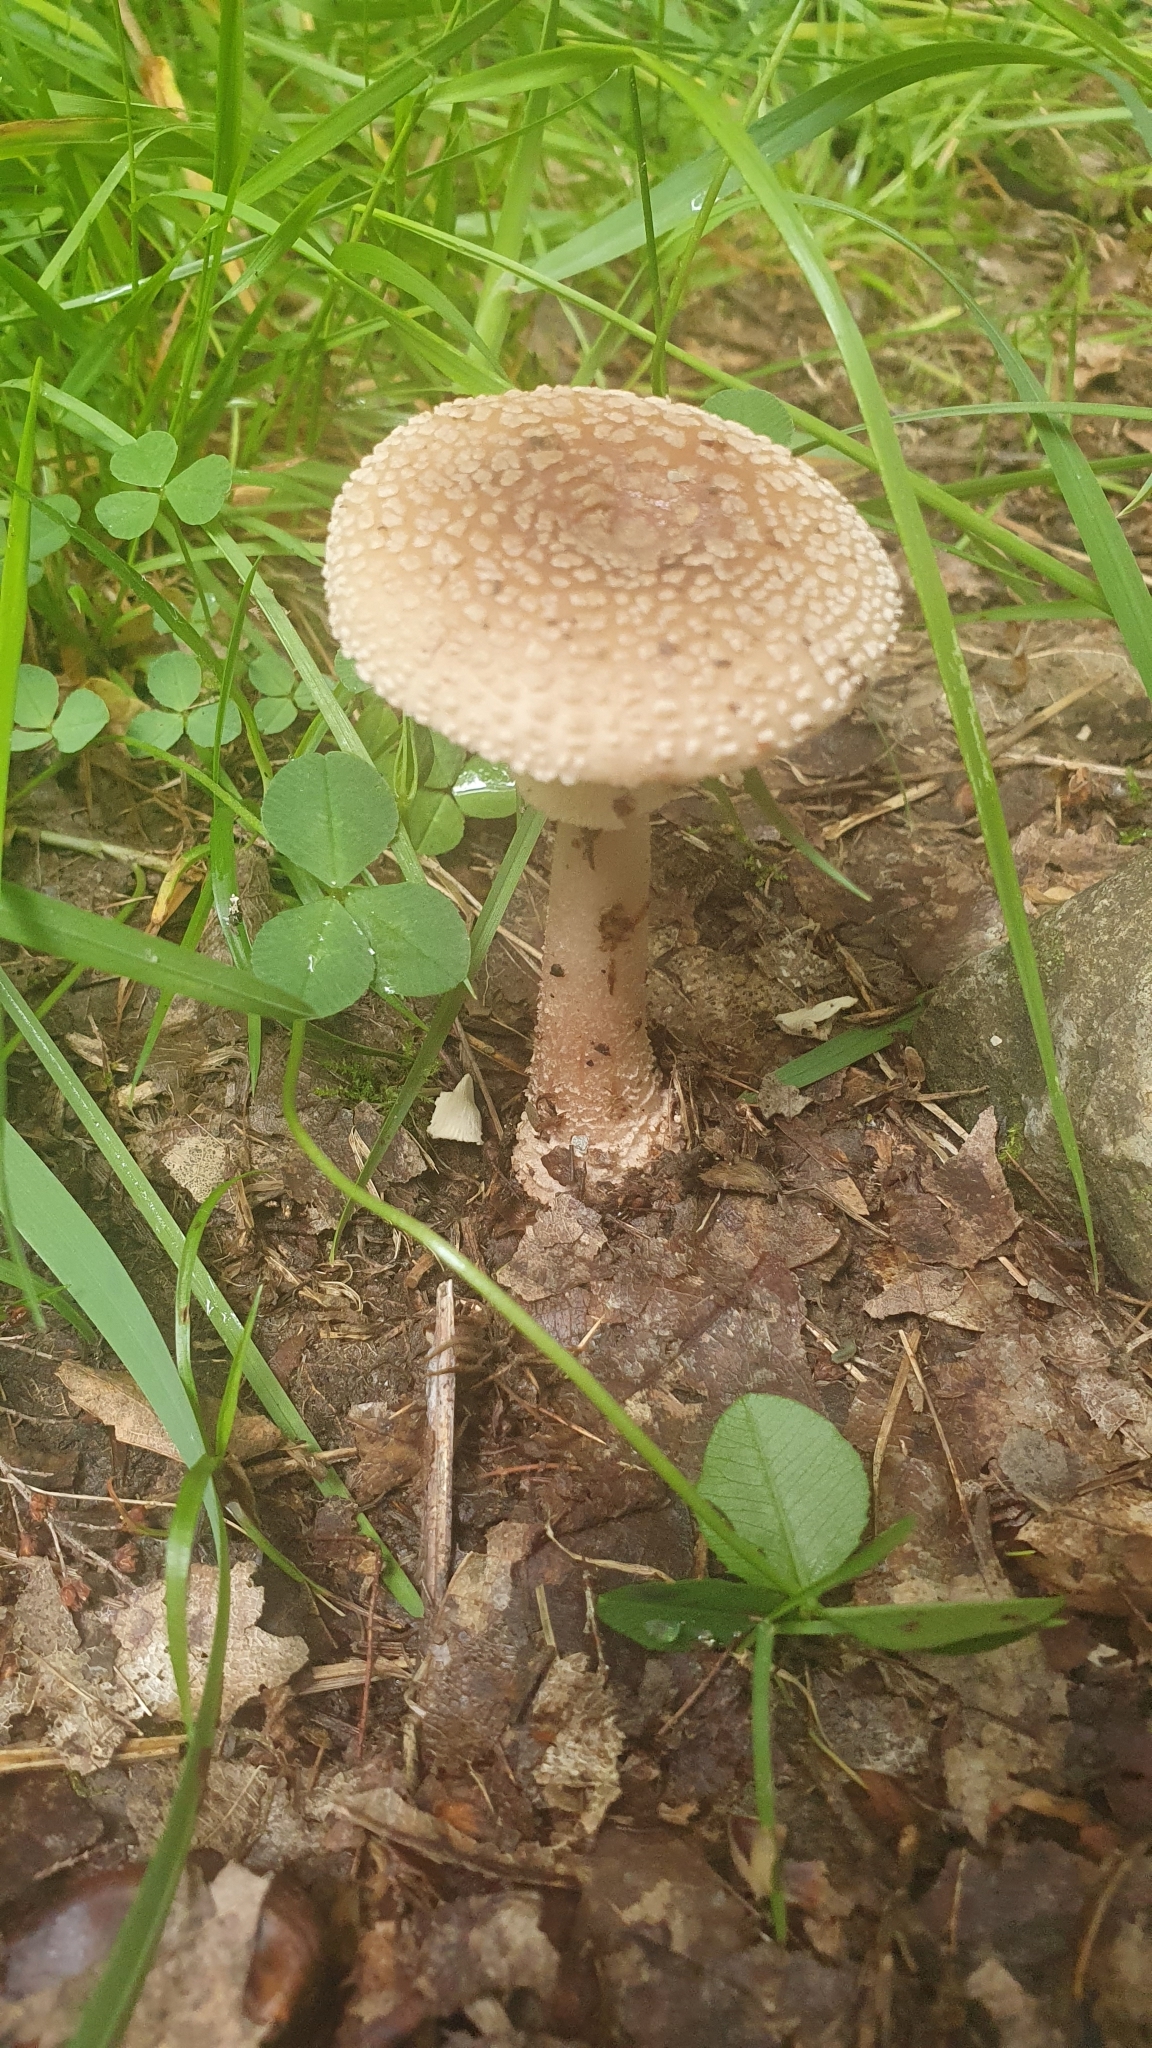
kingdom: Fungi
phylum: Basidiomycota
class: Agaricomycetes
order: Agaricales
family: Amanitaceae
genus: Amanita
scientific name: Amanita rubescens
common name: Blusher
